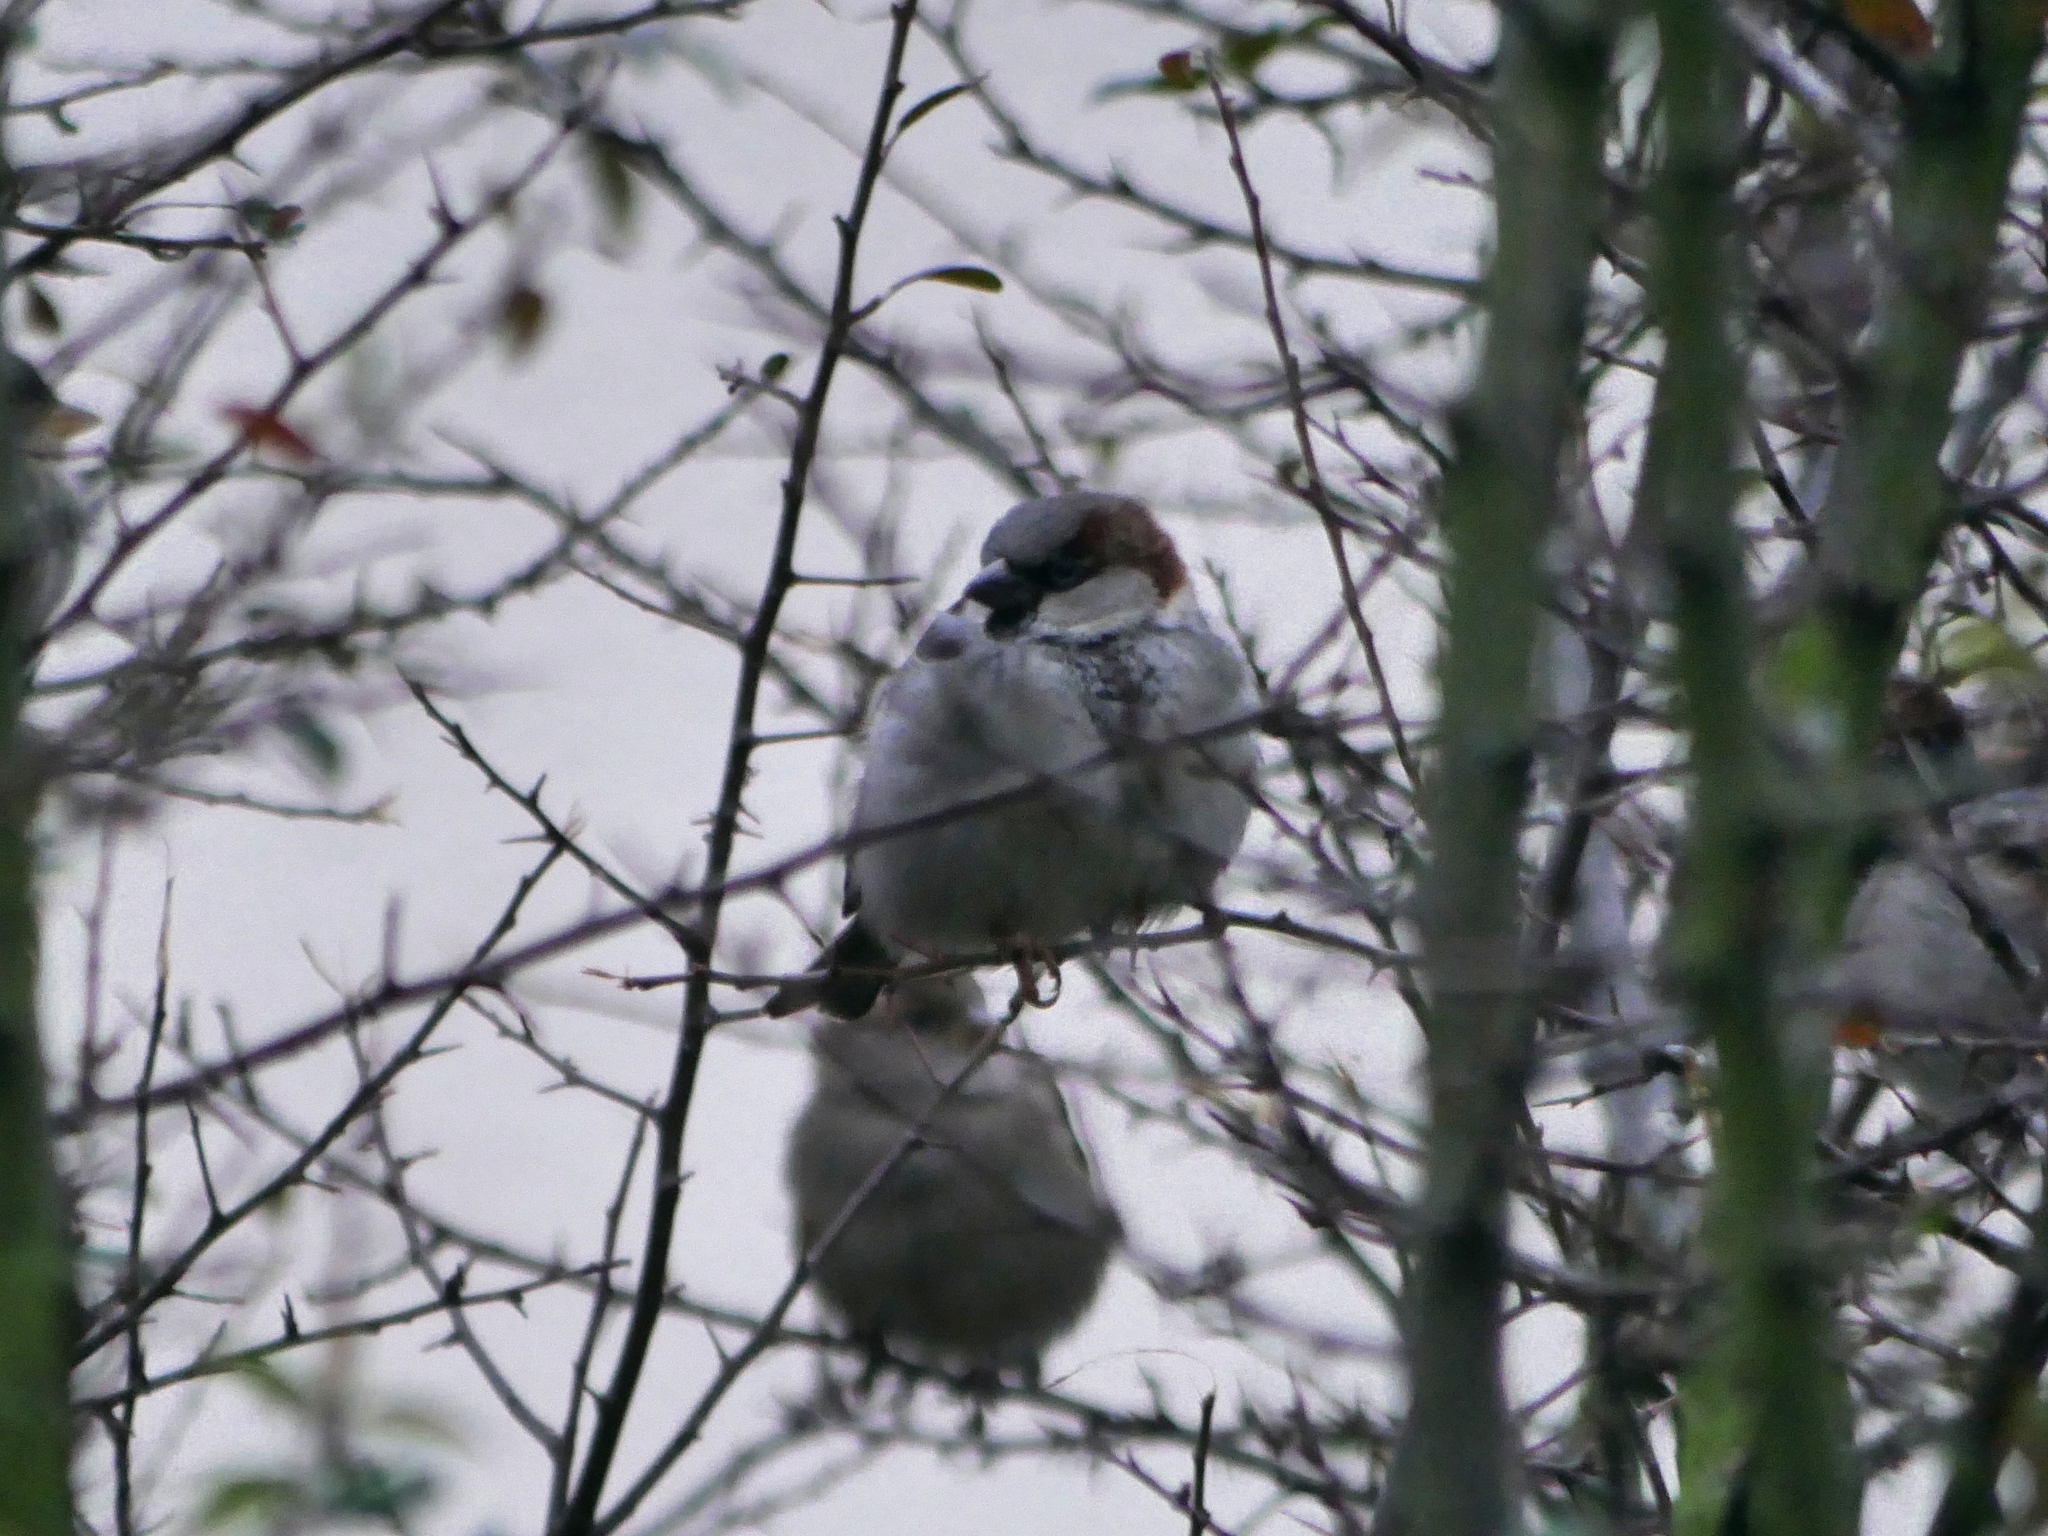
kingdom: Animalia
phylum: Chordata
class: Aves
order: Passeriformes
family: Passeridae
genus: Passer
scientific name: Passer domesticus
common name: House sparrow
